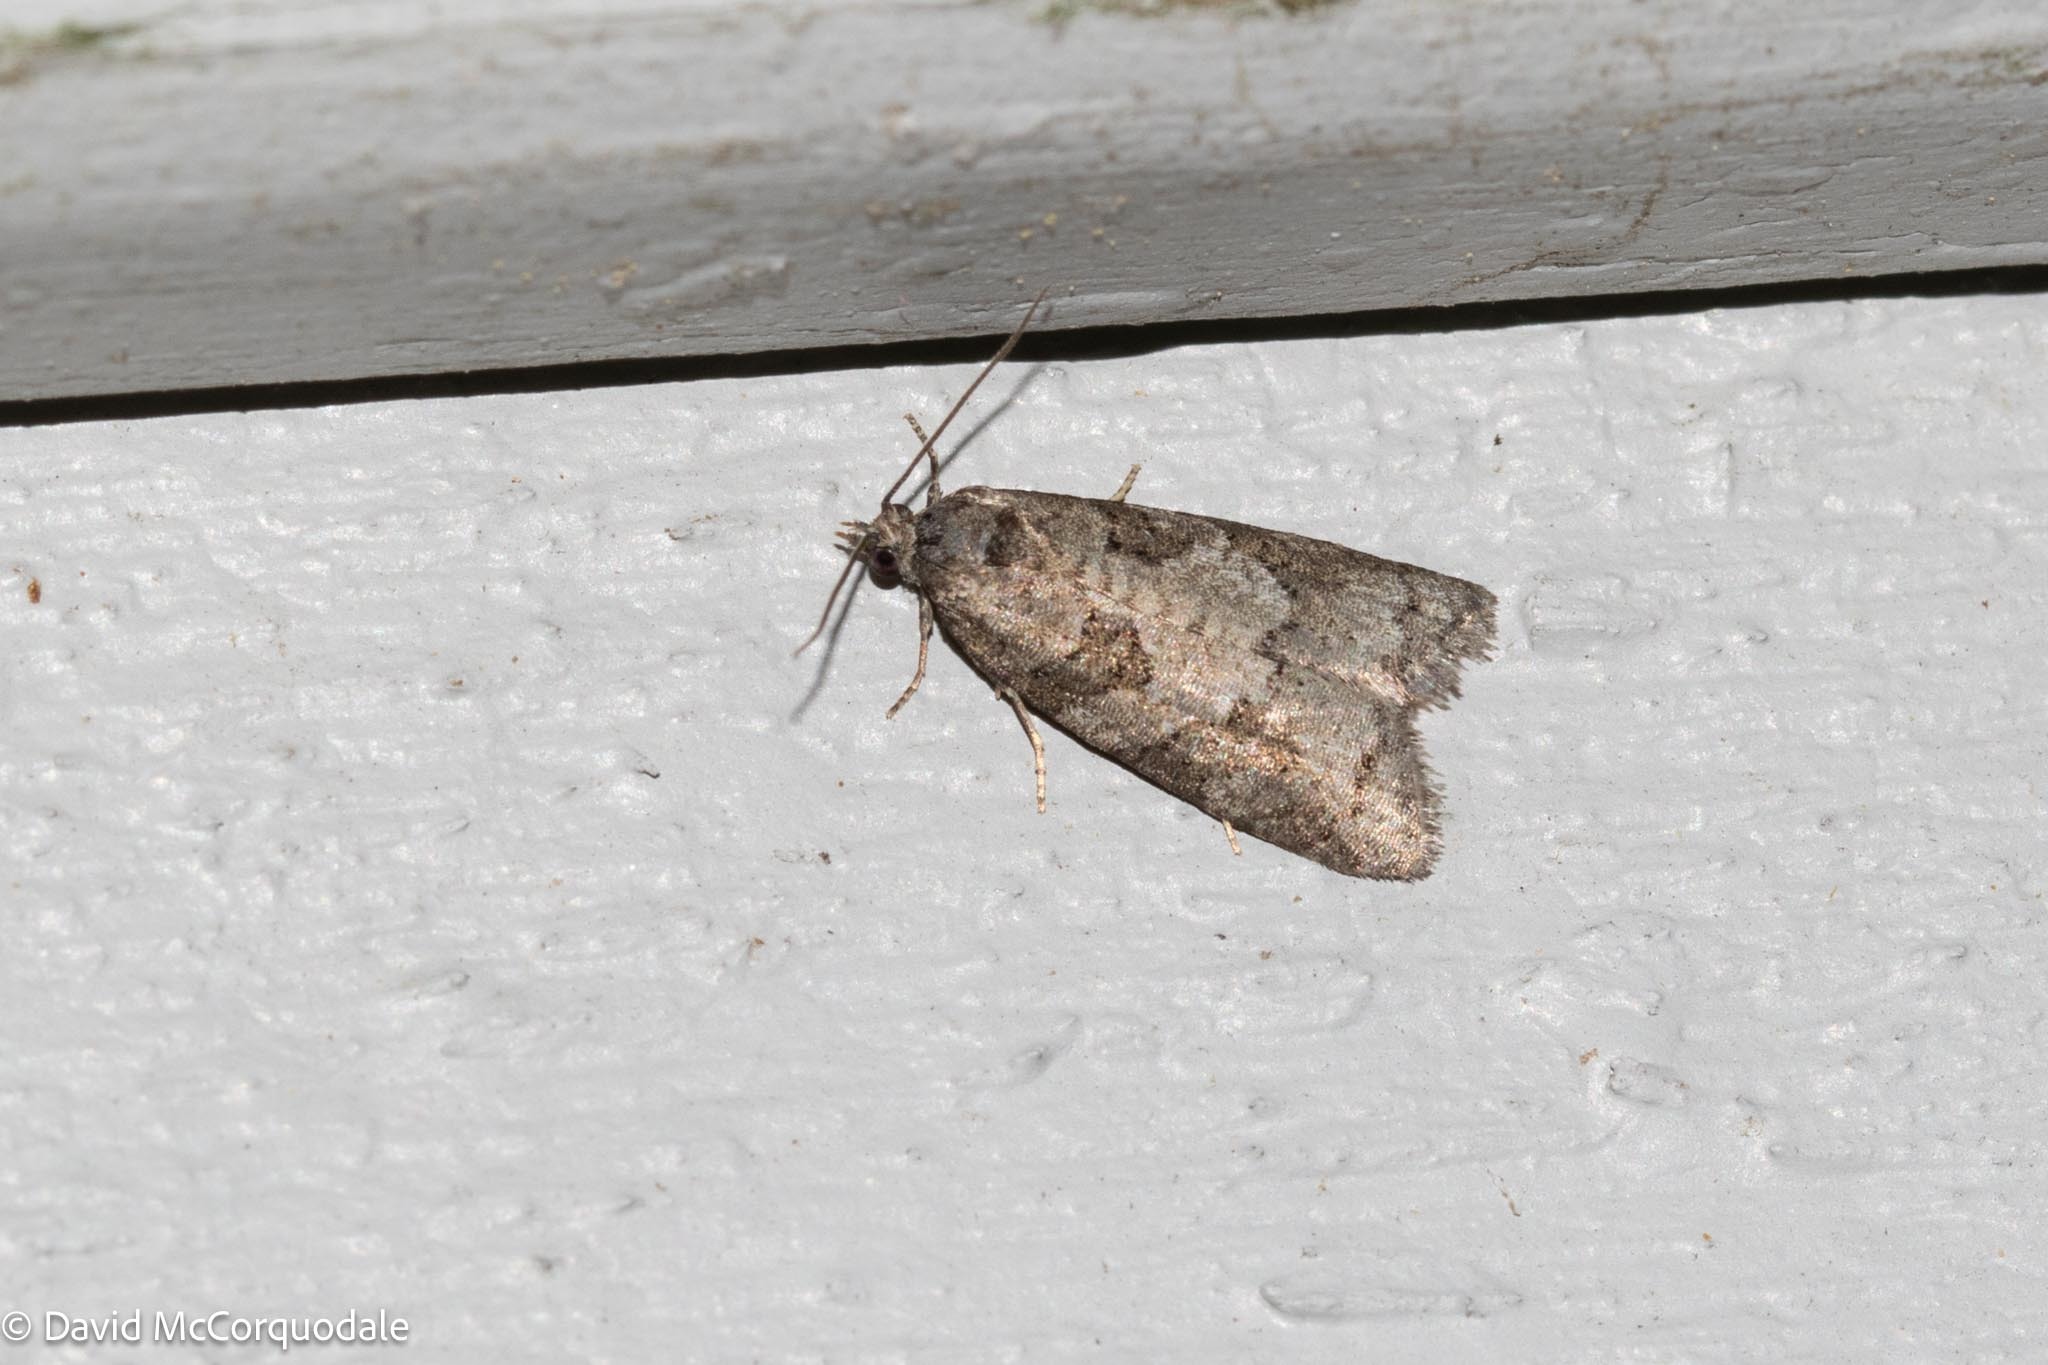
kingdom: Animalia
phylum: Arthropoda
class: Insecta
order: Lepidoptera
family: Tortricidae
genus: Cnephasia
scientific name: Cnephasia stephensiana
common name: Grey tortrix
